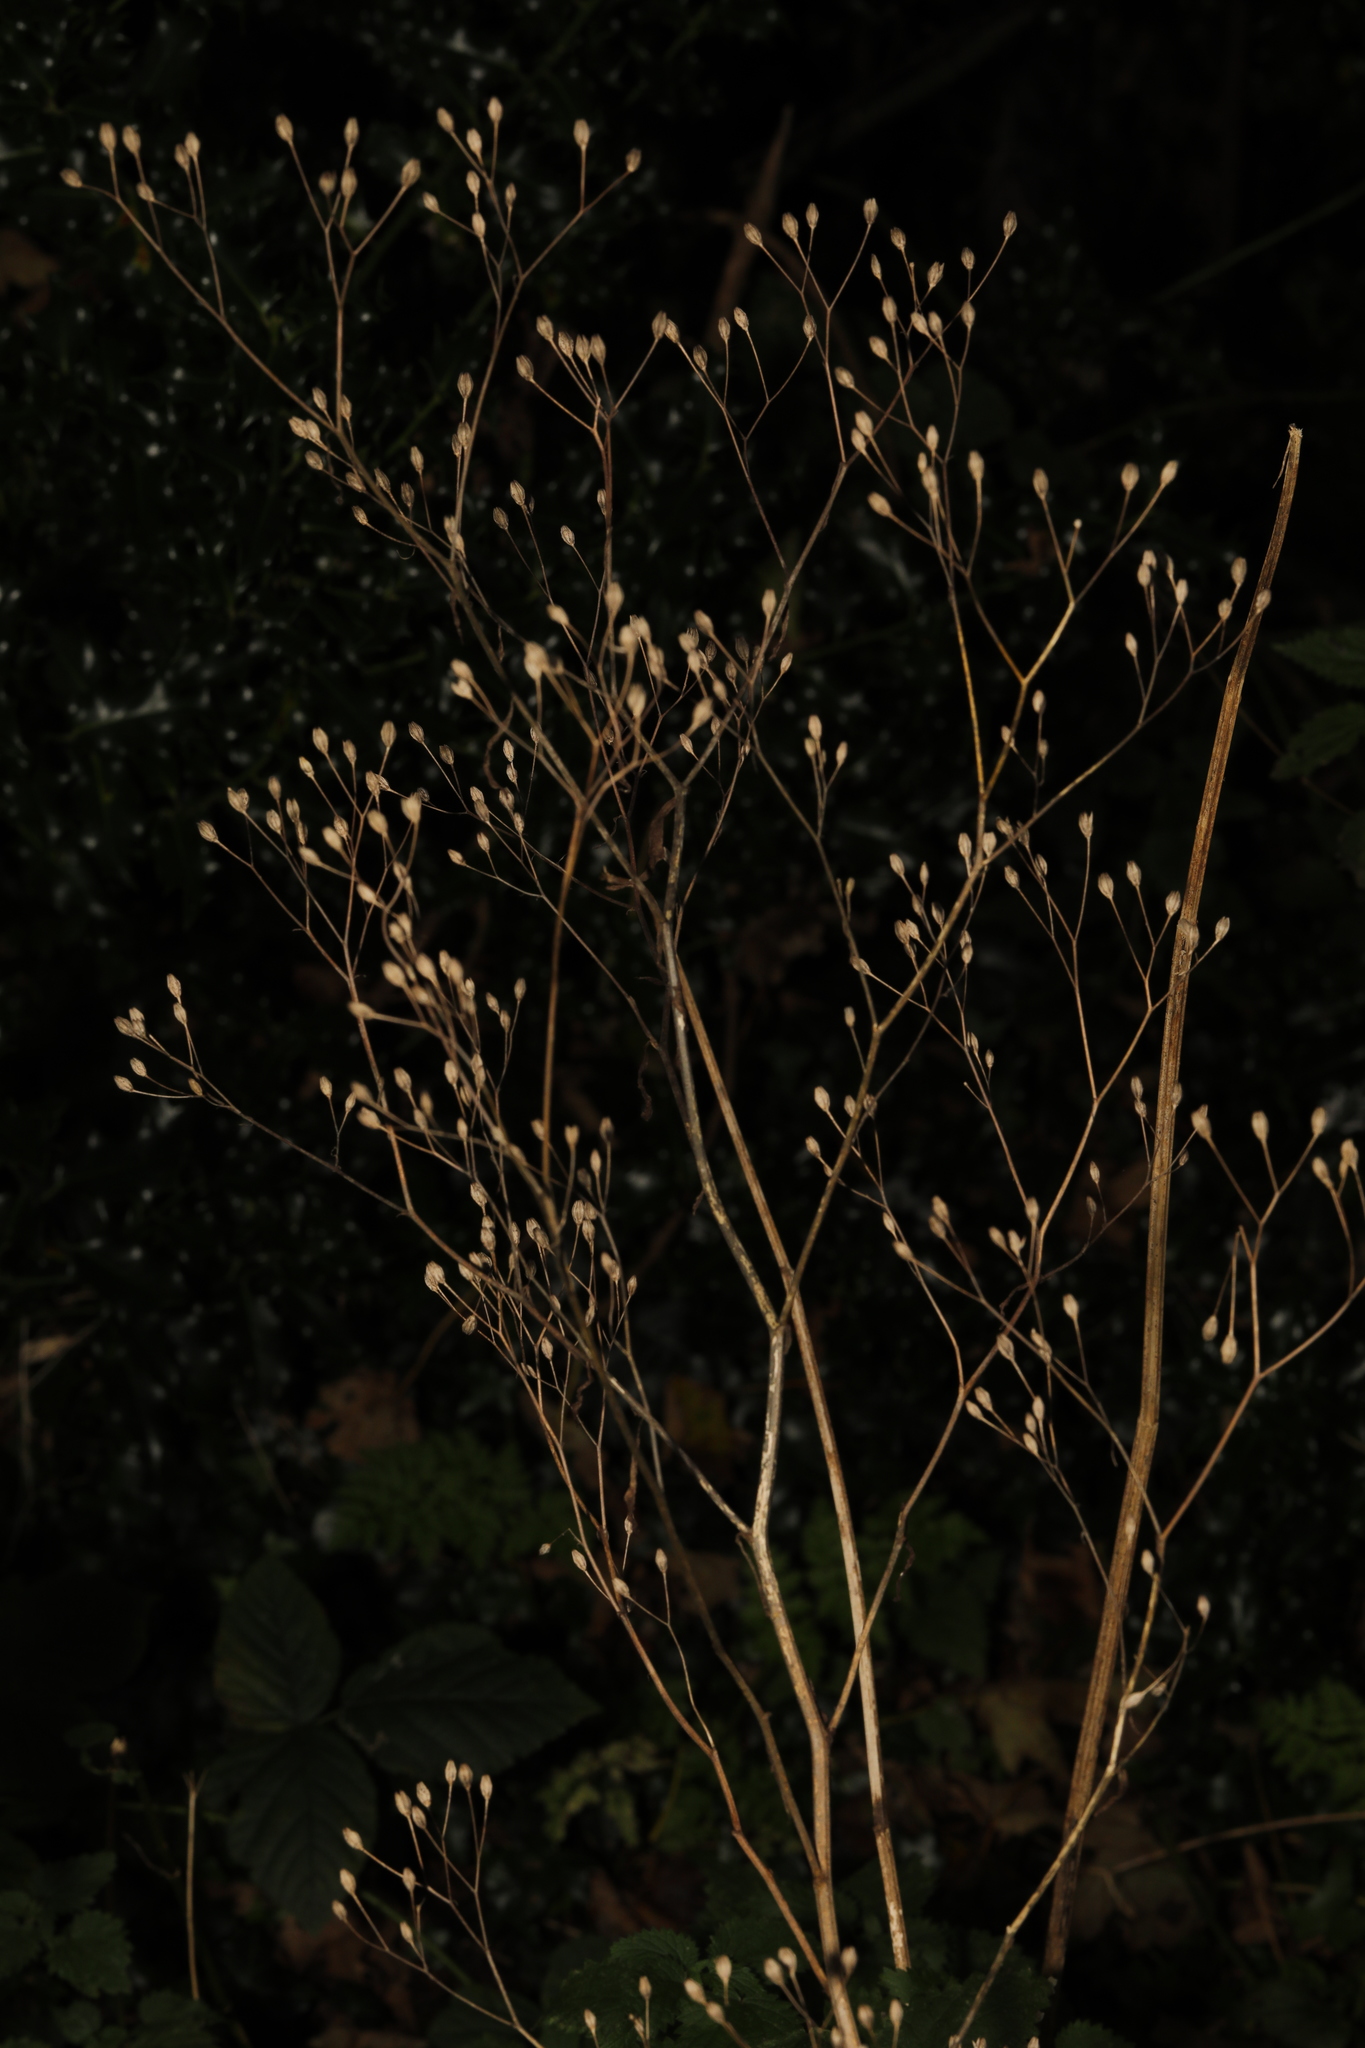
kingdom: Plantae
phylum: Tracheophyta
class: Magnoliopsida
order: Asterales
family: Asteraceae
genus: Lapsana
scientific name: Lapsana communis
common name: Nipplewort
